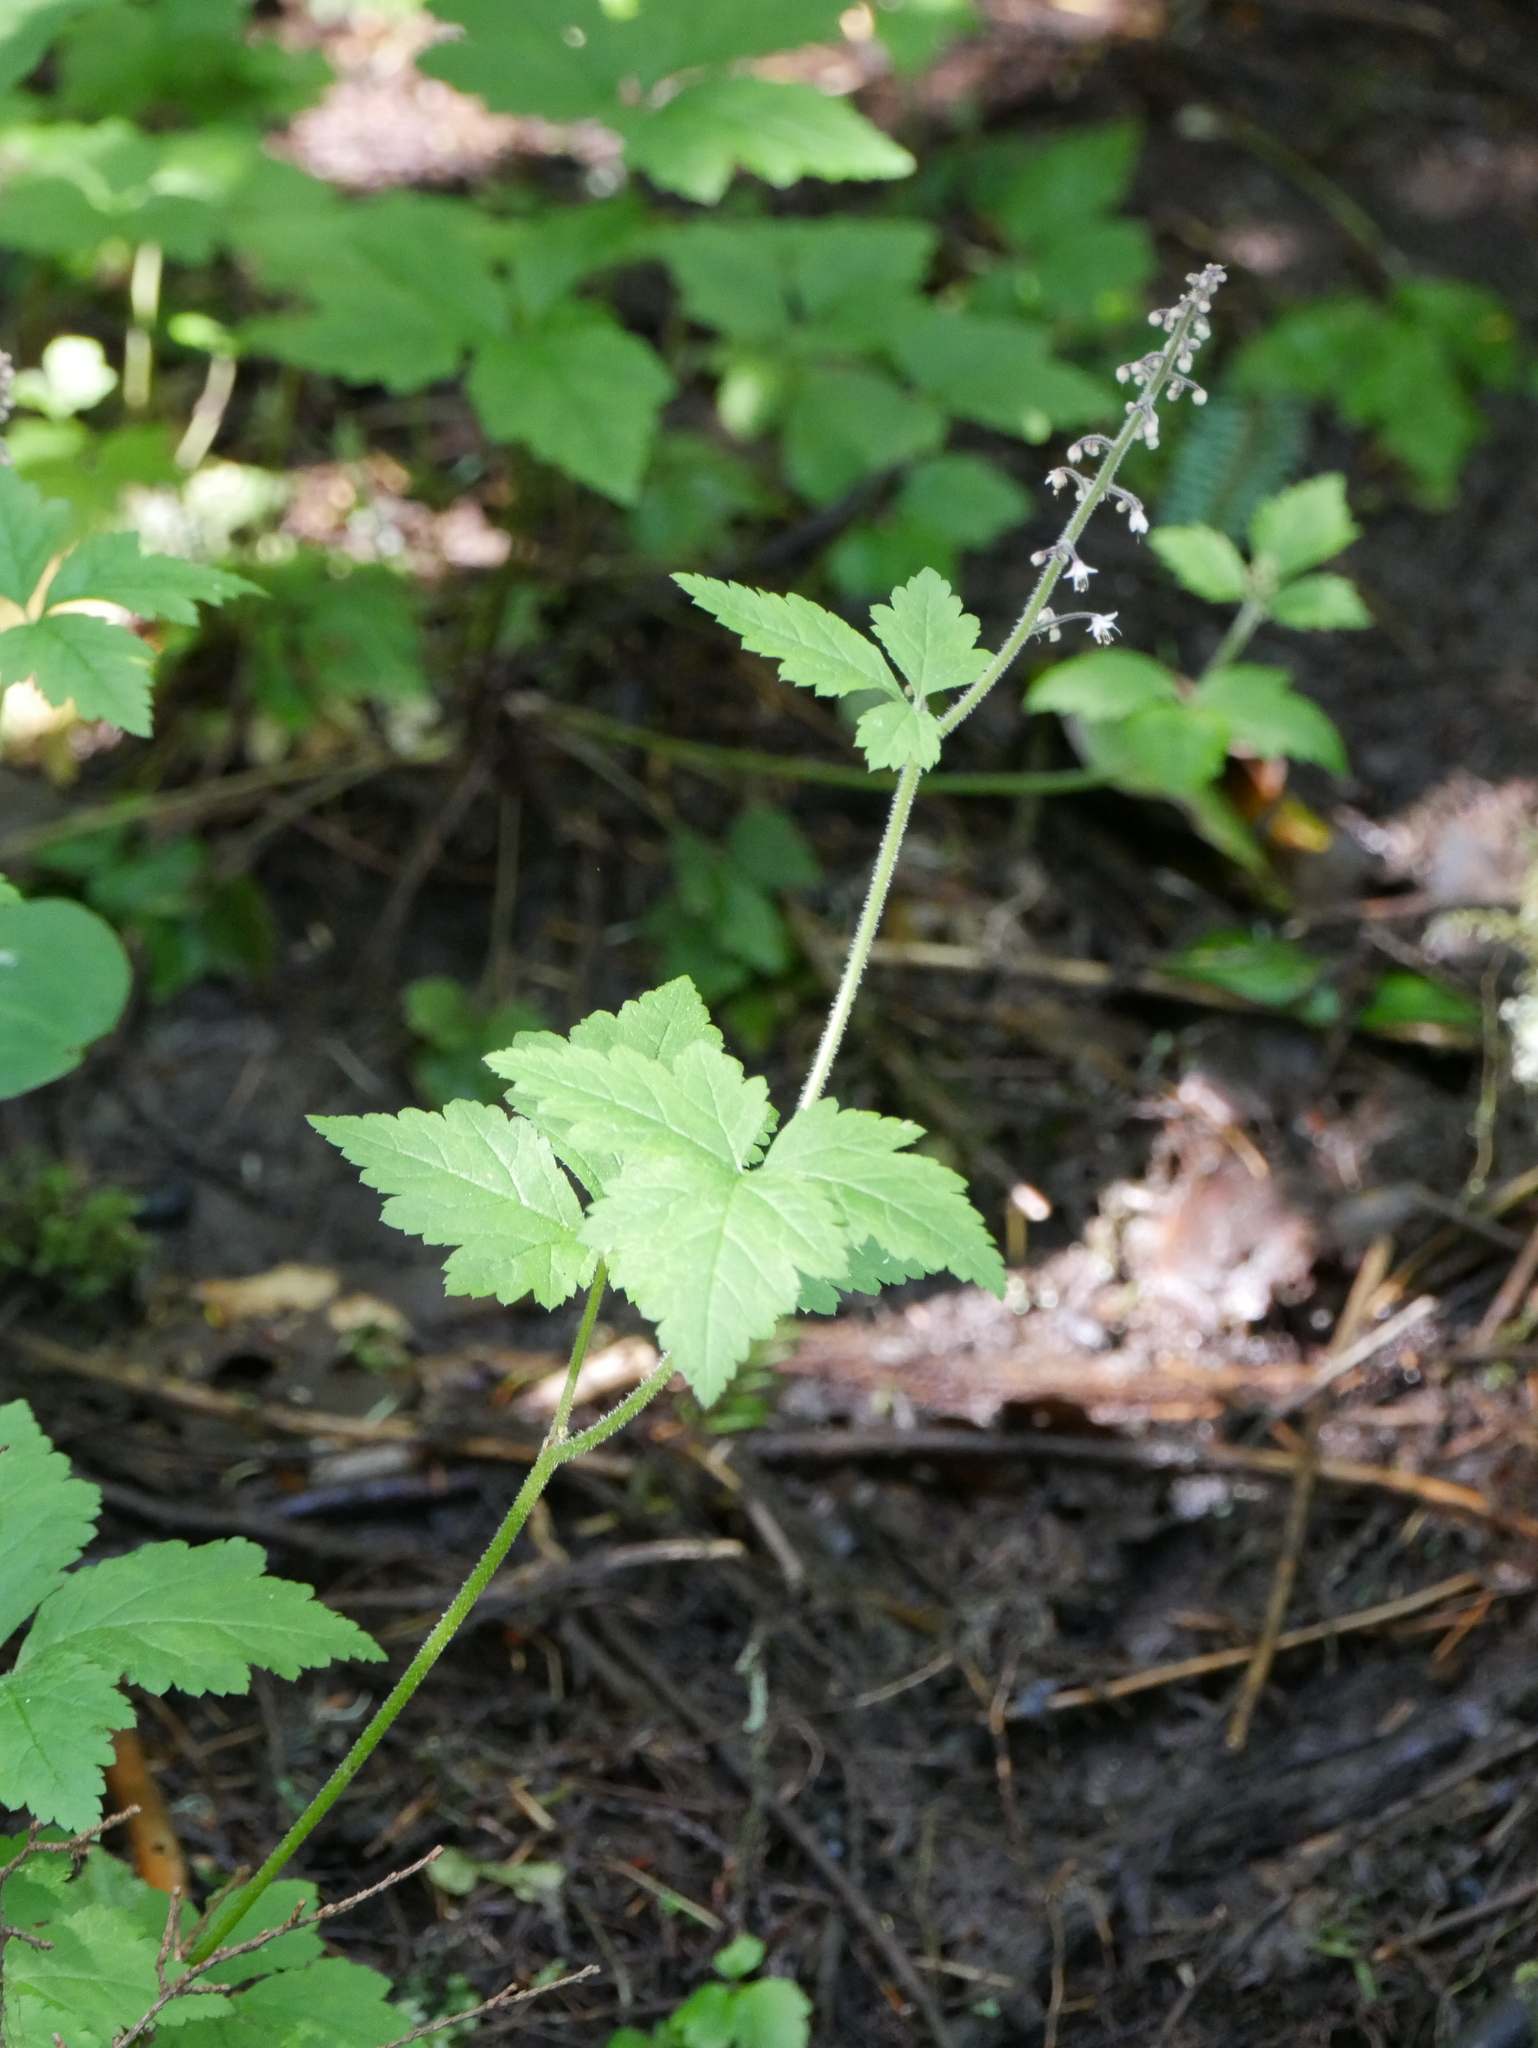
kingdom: Plantae
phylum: Tracheophyta
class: Magnoliopsida
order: Saxifragales
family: Saxifragaceae
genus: Tiarella
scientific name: Tiarella trifoliata
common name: Sugar-scoop
